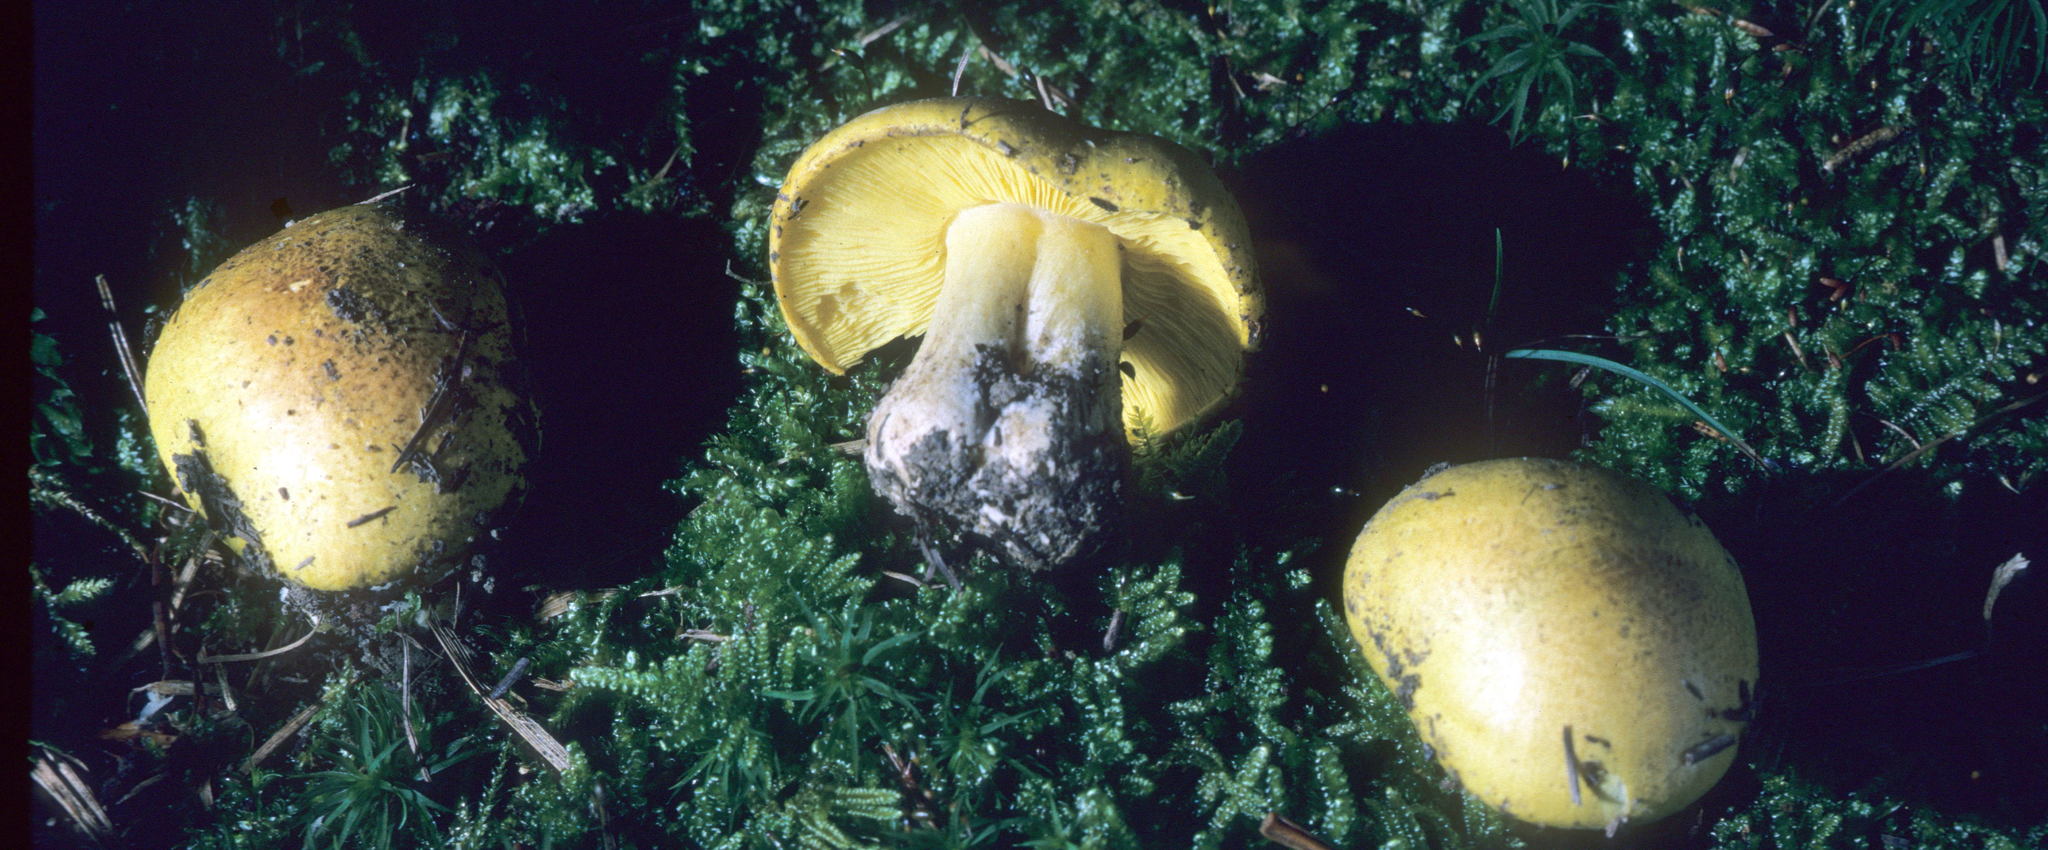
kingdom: Fungi
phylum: Basidiomycota
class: Agaricomycetes
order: Agaricales
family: Tricholomataceae
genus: Tricholoma
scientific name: Tricholoma equestre
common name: Yellow knight
